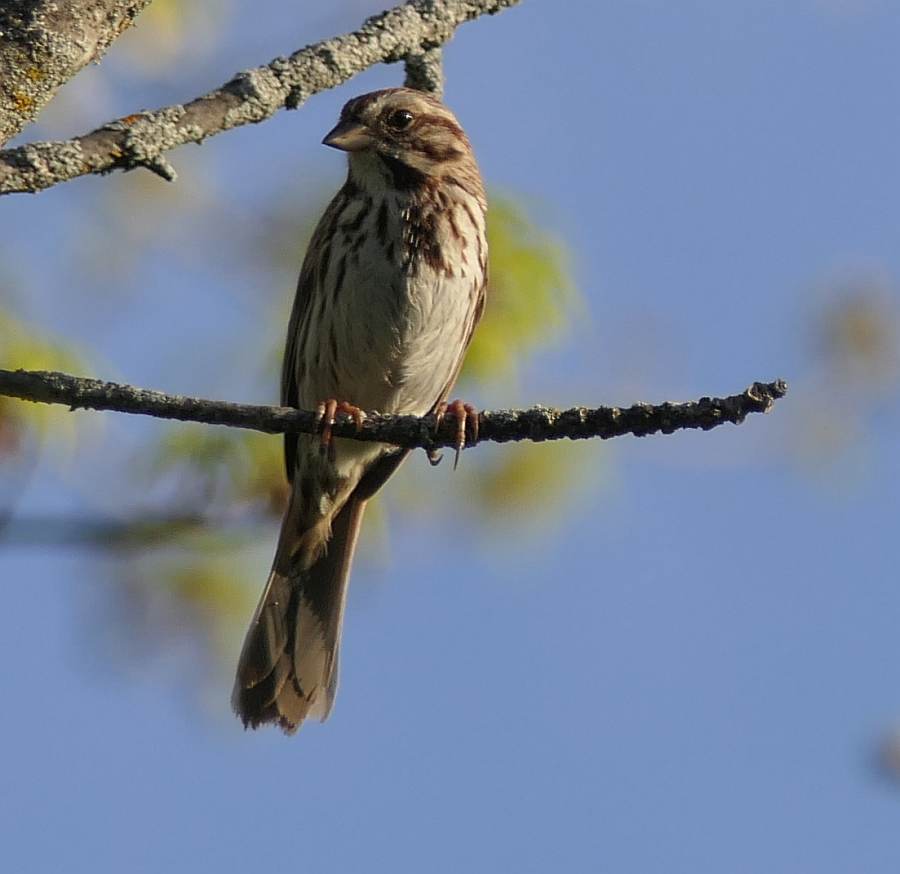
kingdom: Animalia
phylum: Chordata
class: Aves
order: Passeriformes
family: Passerellidae
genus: Melospiza
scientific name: Melospiza melodia
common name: Song sparrow
